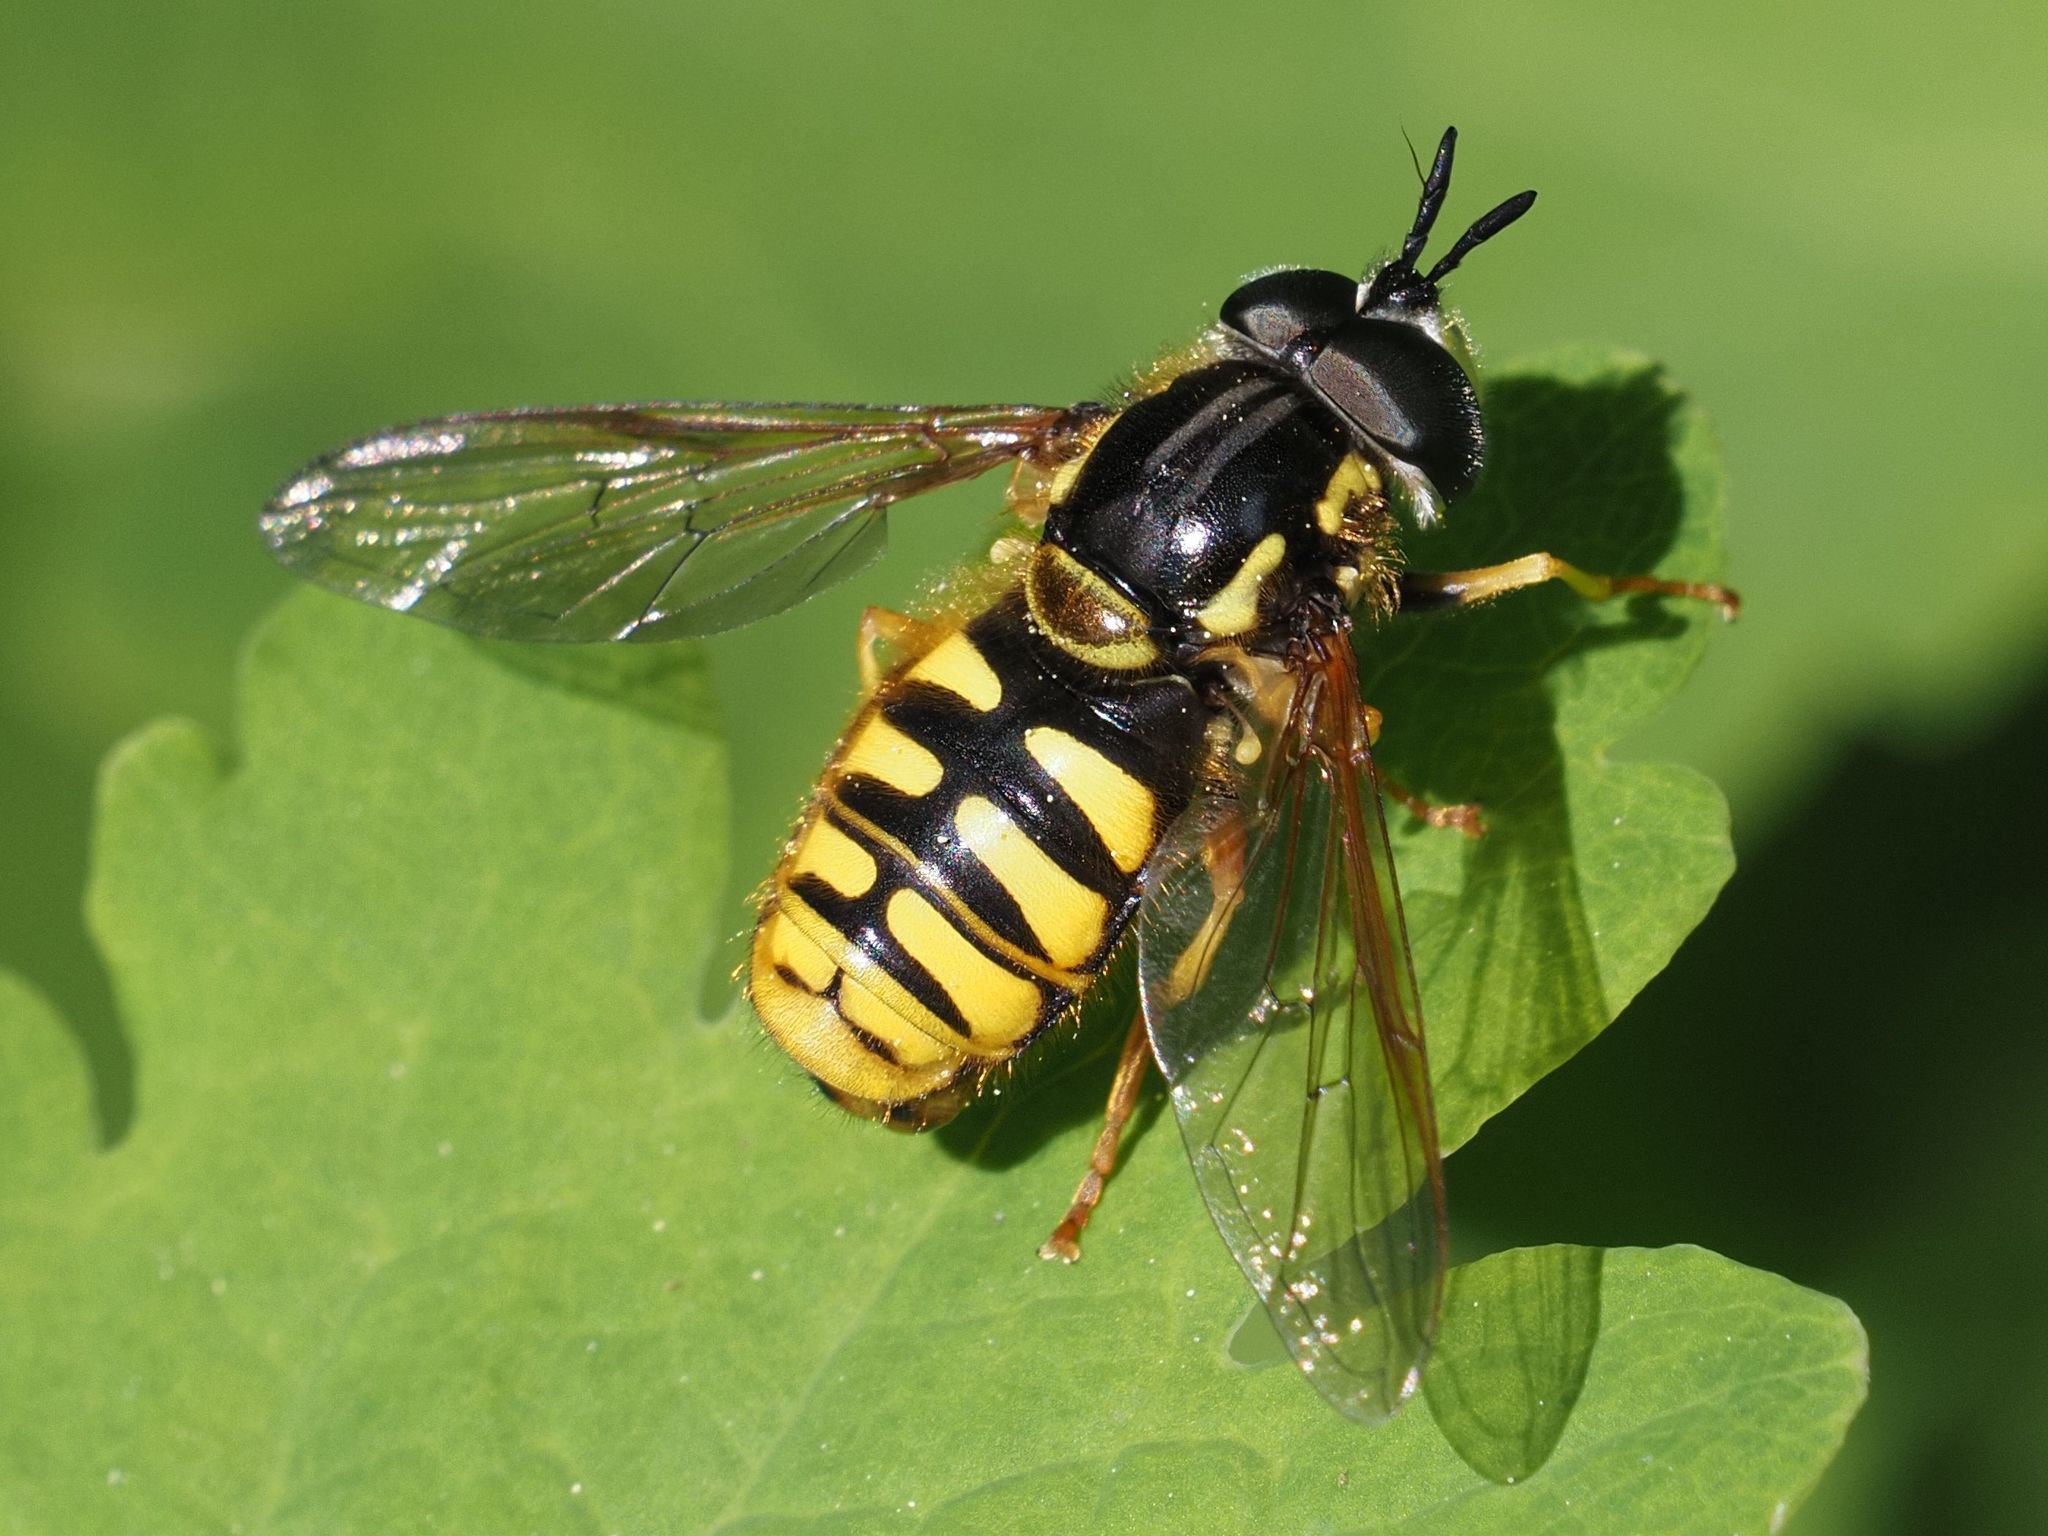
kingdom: Animalia
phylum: Arthropoda
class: Insecta
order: Diptera
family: Syrphidae
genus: Chrysotoxum
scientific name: Chrysotoxum cautum
